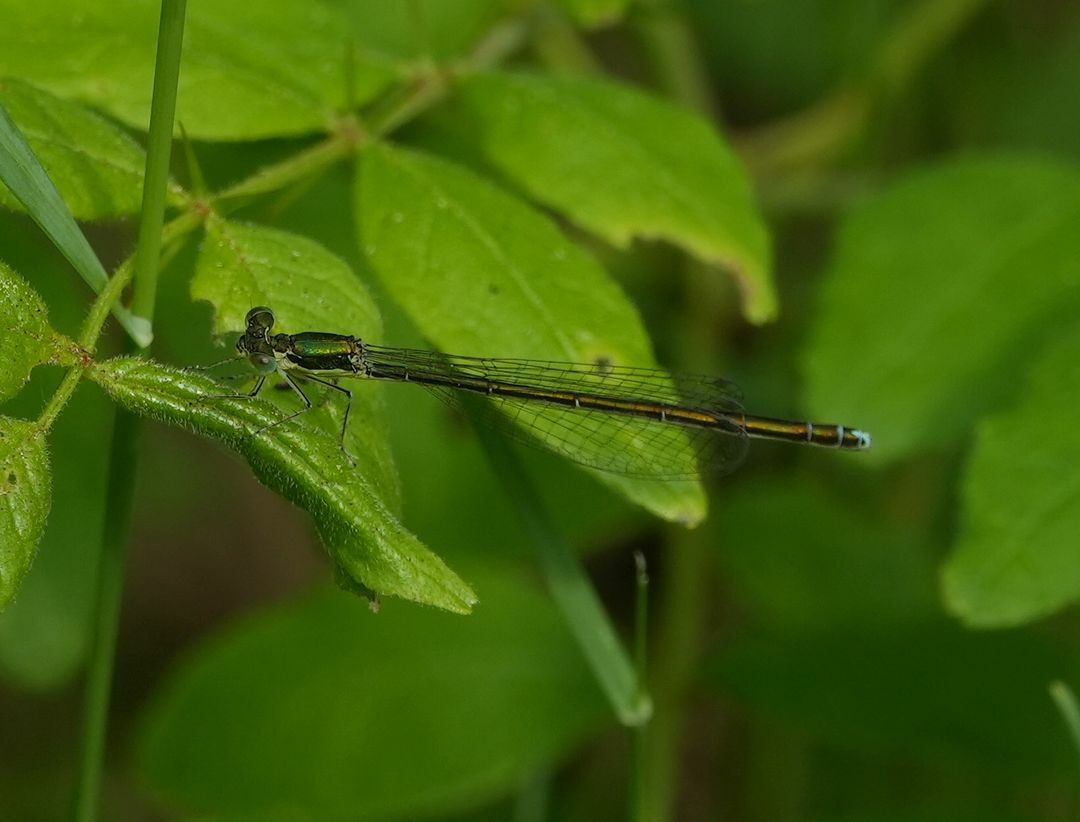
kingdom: Animalia
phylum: Arthropoda
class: Insecta
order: Odonata
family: Coenagrionidae
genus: Nehalennia
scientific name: Nehalennia irene
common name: Sedge sprite
